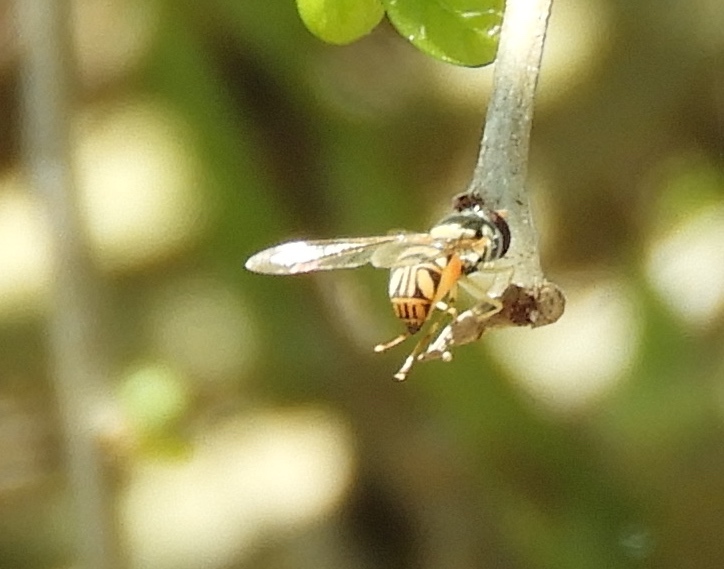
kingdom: Animalia
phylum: Arthropoda
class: Insecta
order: Diptera
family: Syrphidae
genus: Allograpta
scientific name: Allograpta obliqua
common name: Common oblique syrphid
